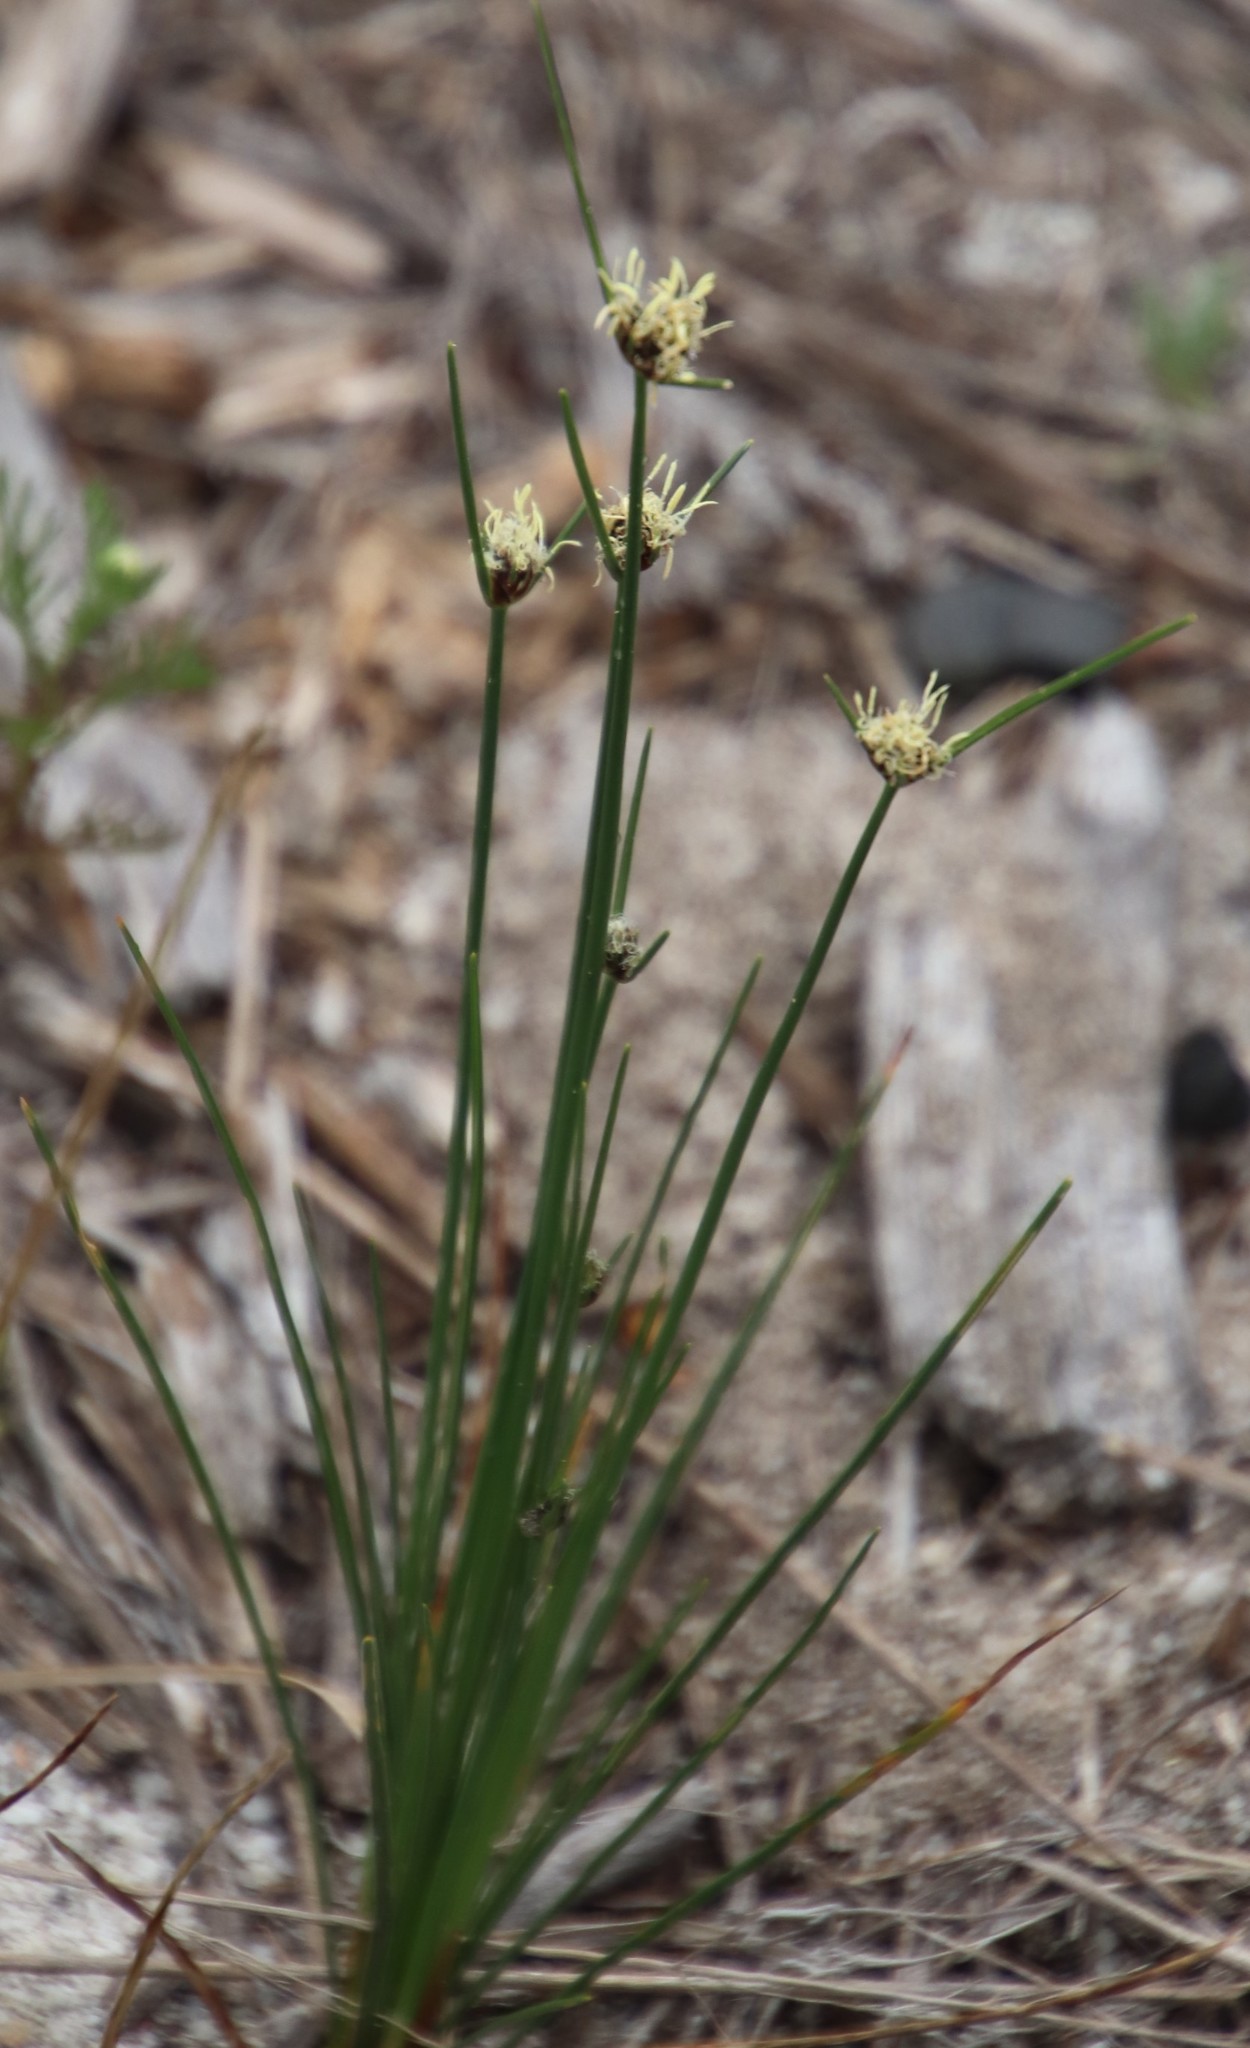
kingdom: Plantae
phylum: Tracheophyta
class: Liliopsida
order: Poales
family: Cyperaceae
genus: Ficinia
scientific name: Ficinia indica
